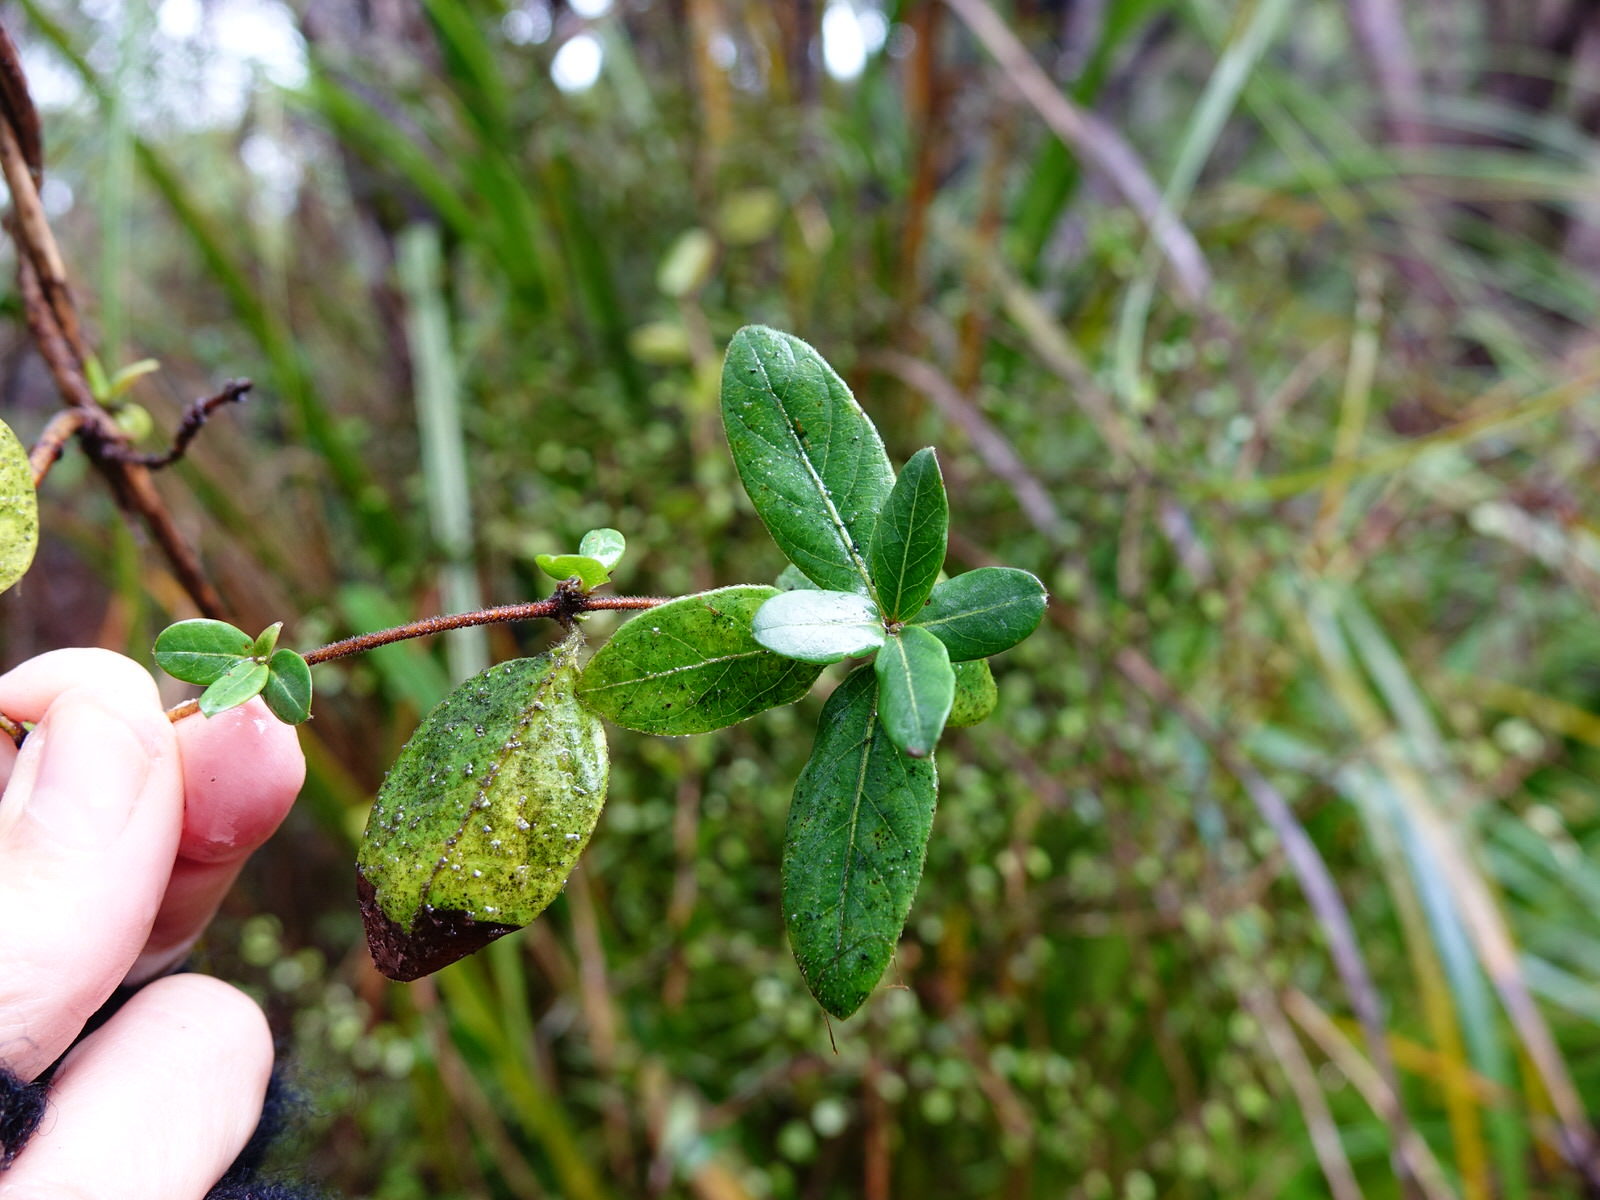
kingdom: Plantae
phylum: Tracheophyta
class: Magnoliopsida
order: Dipsacales
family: Caprifoliaceae
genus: Lonicera
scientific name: Lonicera japonica
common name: Japanese honeysuckle
